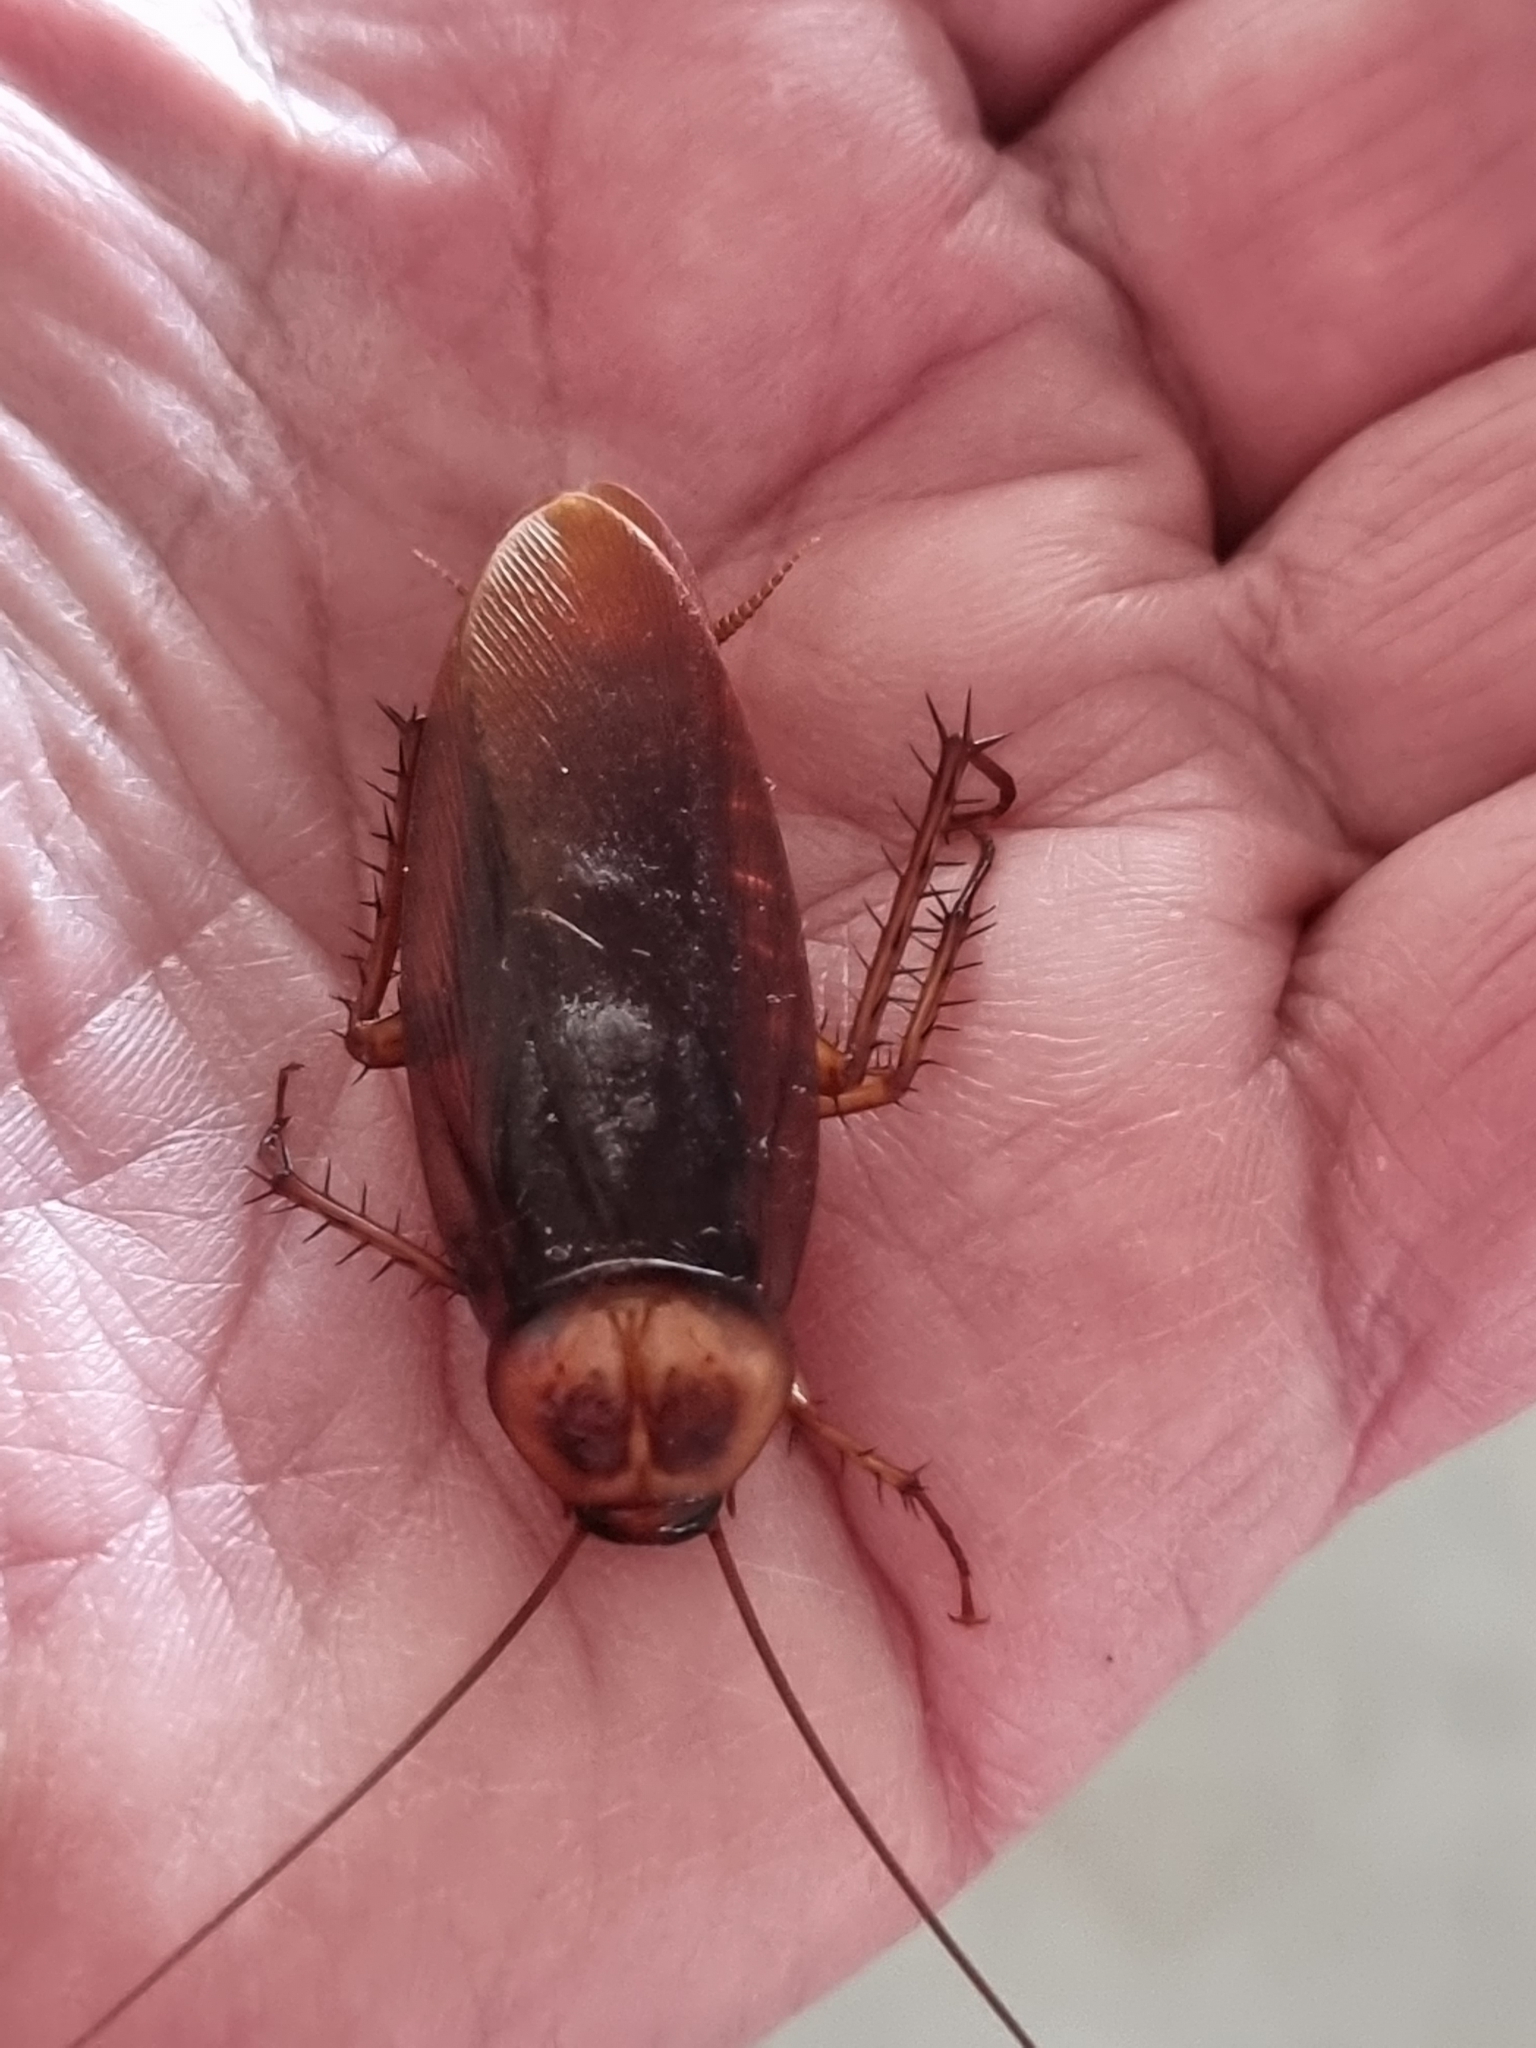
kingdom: Animalia
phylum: Arthropoda
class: Insecta
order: Blattodea
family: Blattidae
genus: Periplaneta
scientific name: Periplaneta americana
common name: American cockroach
